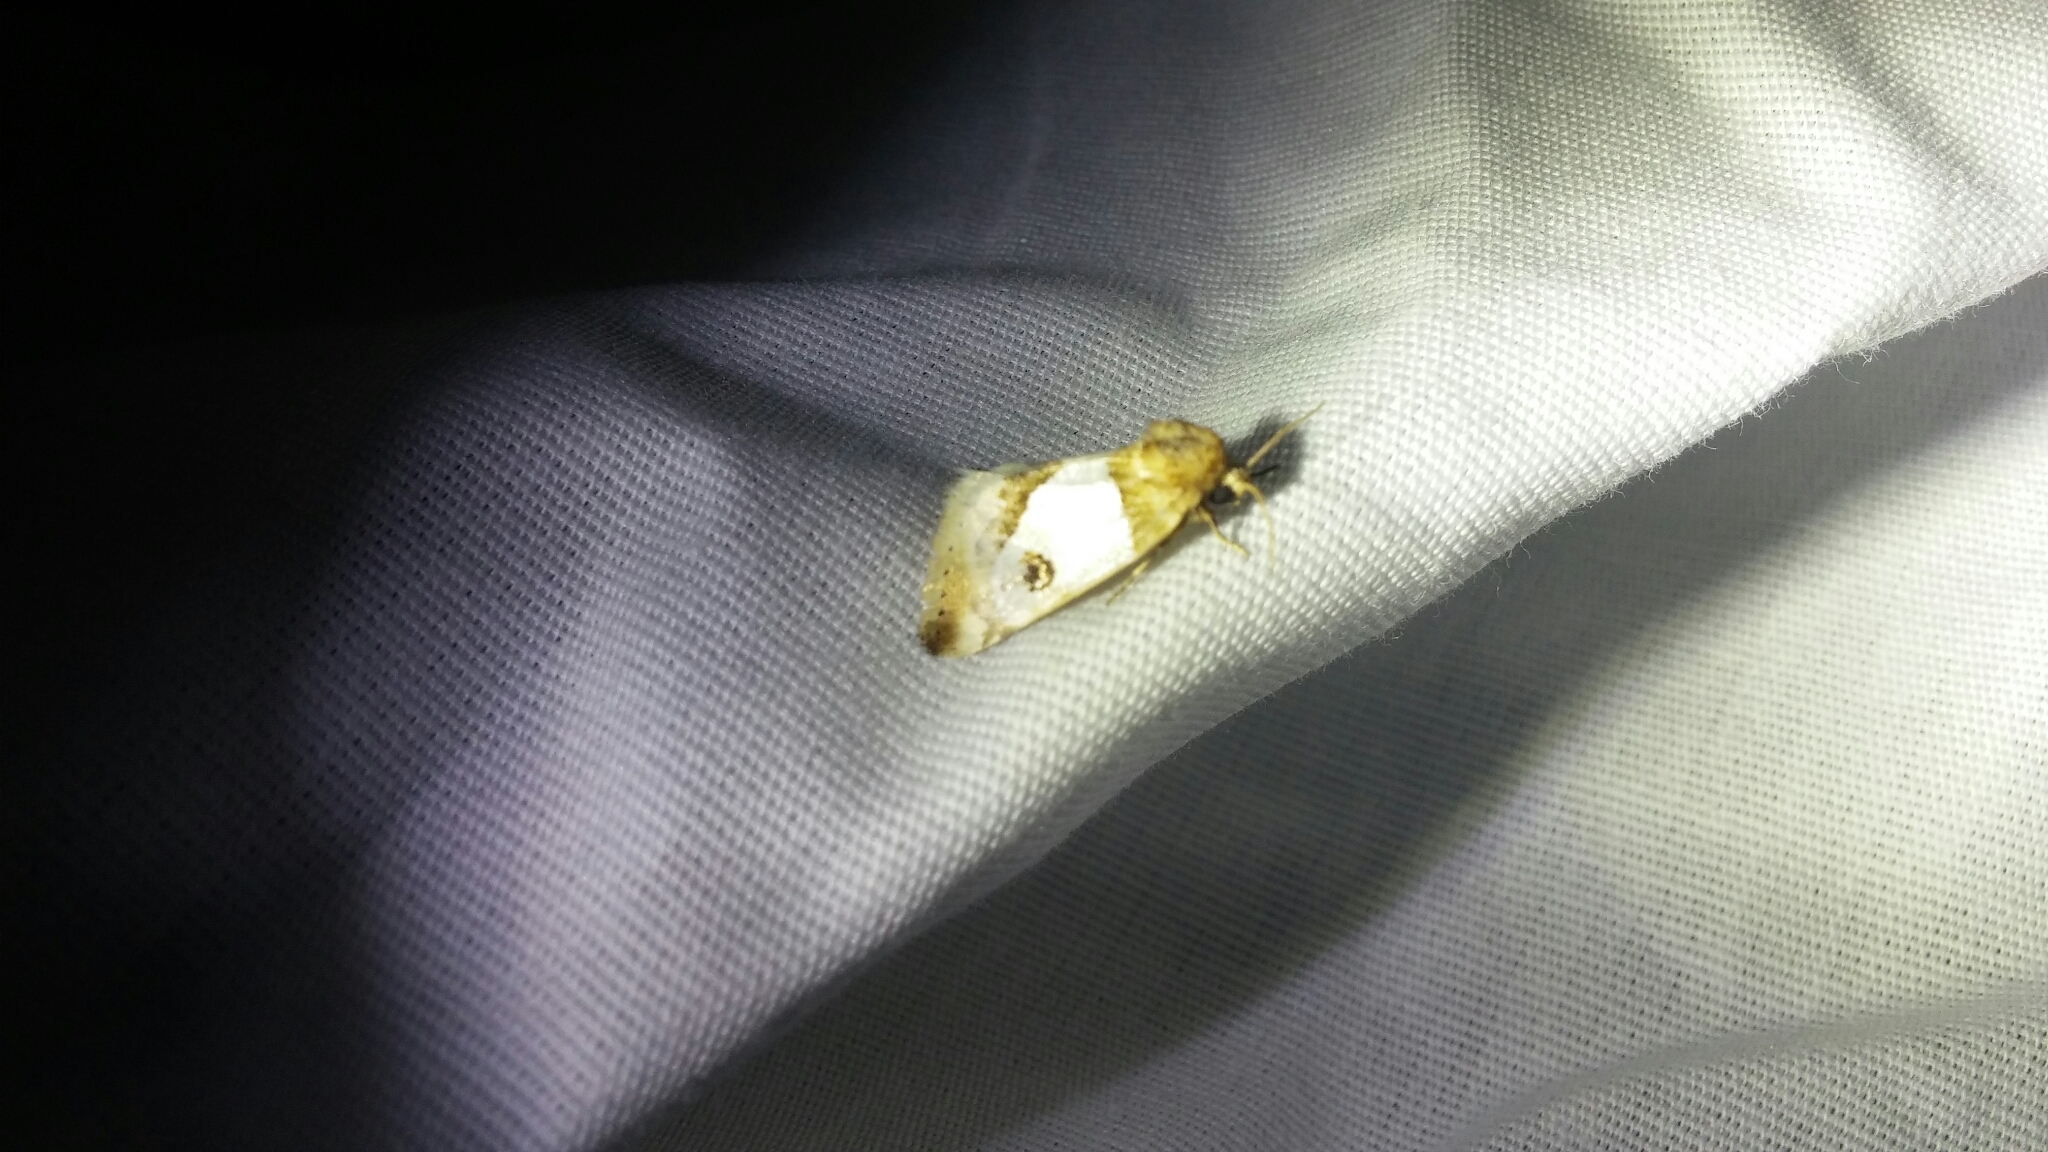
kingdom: Animalia
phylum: Arthropoda
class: Insecta
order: Lepidoptera
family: Noctuidae
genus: Schinia
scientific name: Schinia oculata
